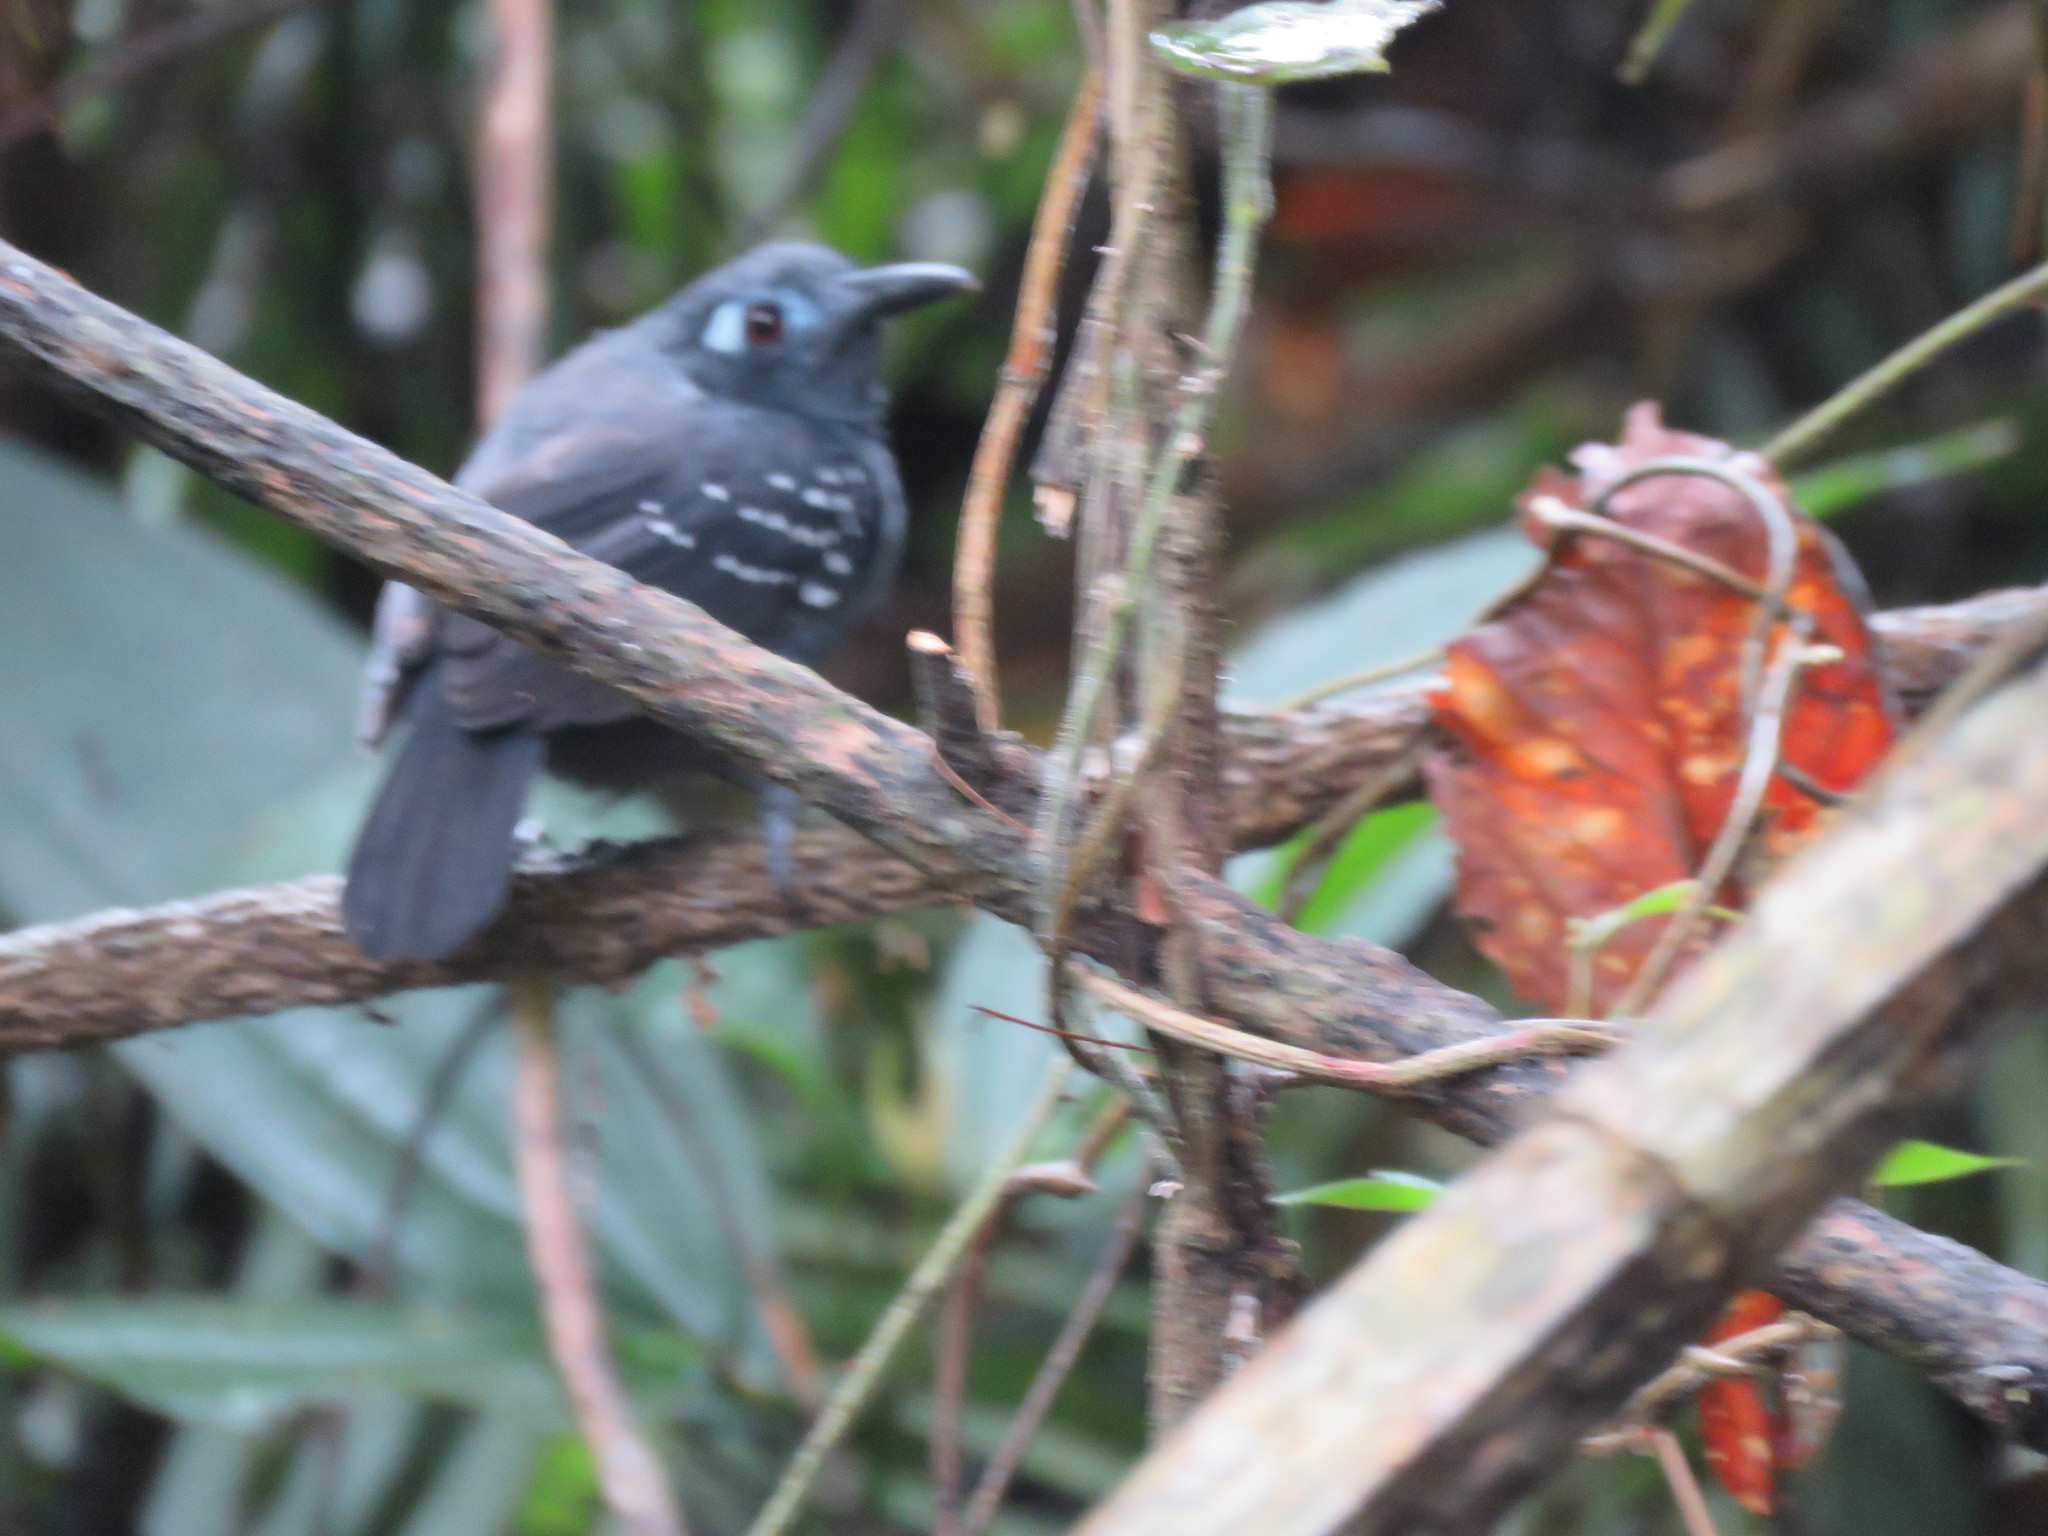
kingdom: Animalia
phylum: Chordata
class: Aves
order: Passeriformes
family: Thamnophilidae
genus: Myrmeciza
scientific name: Myrmeciza hyperythra
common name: Plumbeous antbird
